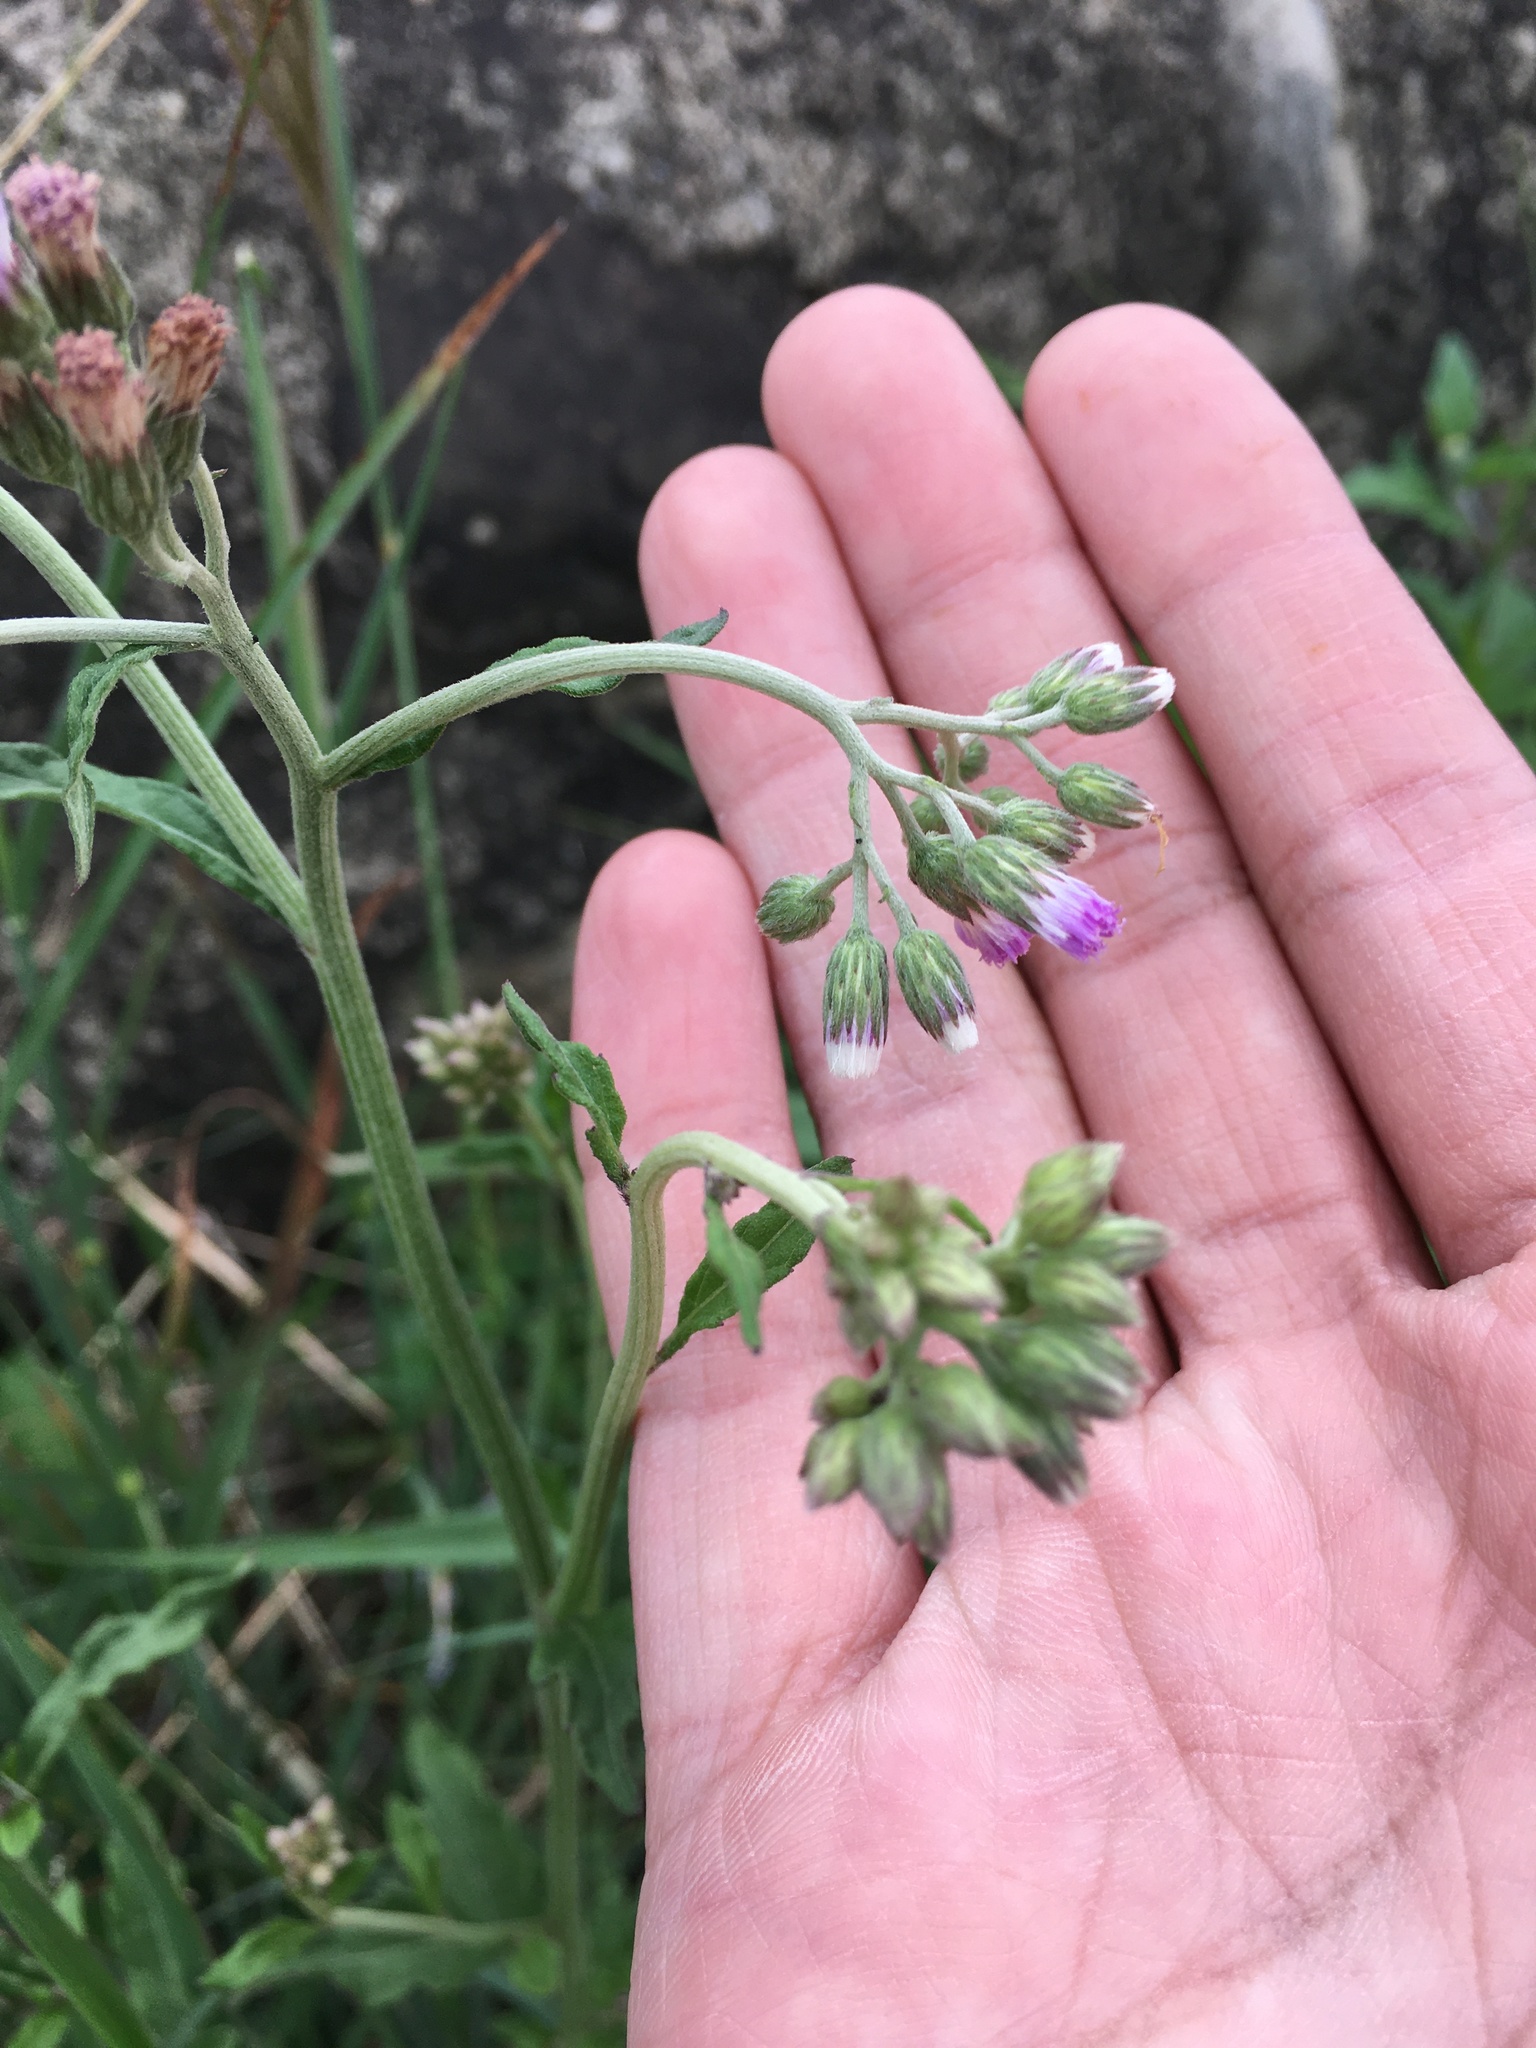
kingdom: Plantae
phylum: Tracheophyta
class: Magnoliopsida
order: Asterales
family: Asteraceae
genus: Cyanthillium
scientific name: Cyanthillium cinereum
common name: Little ironweed
